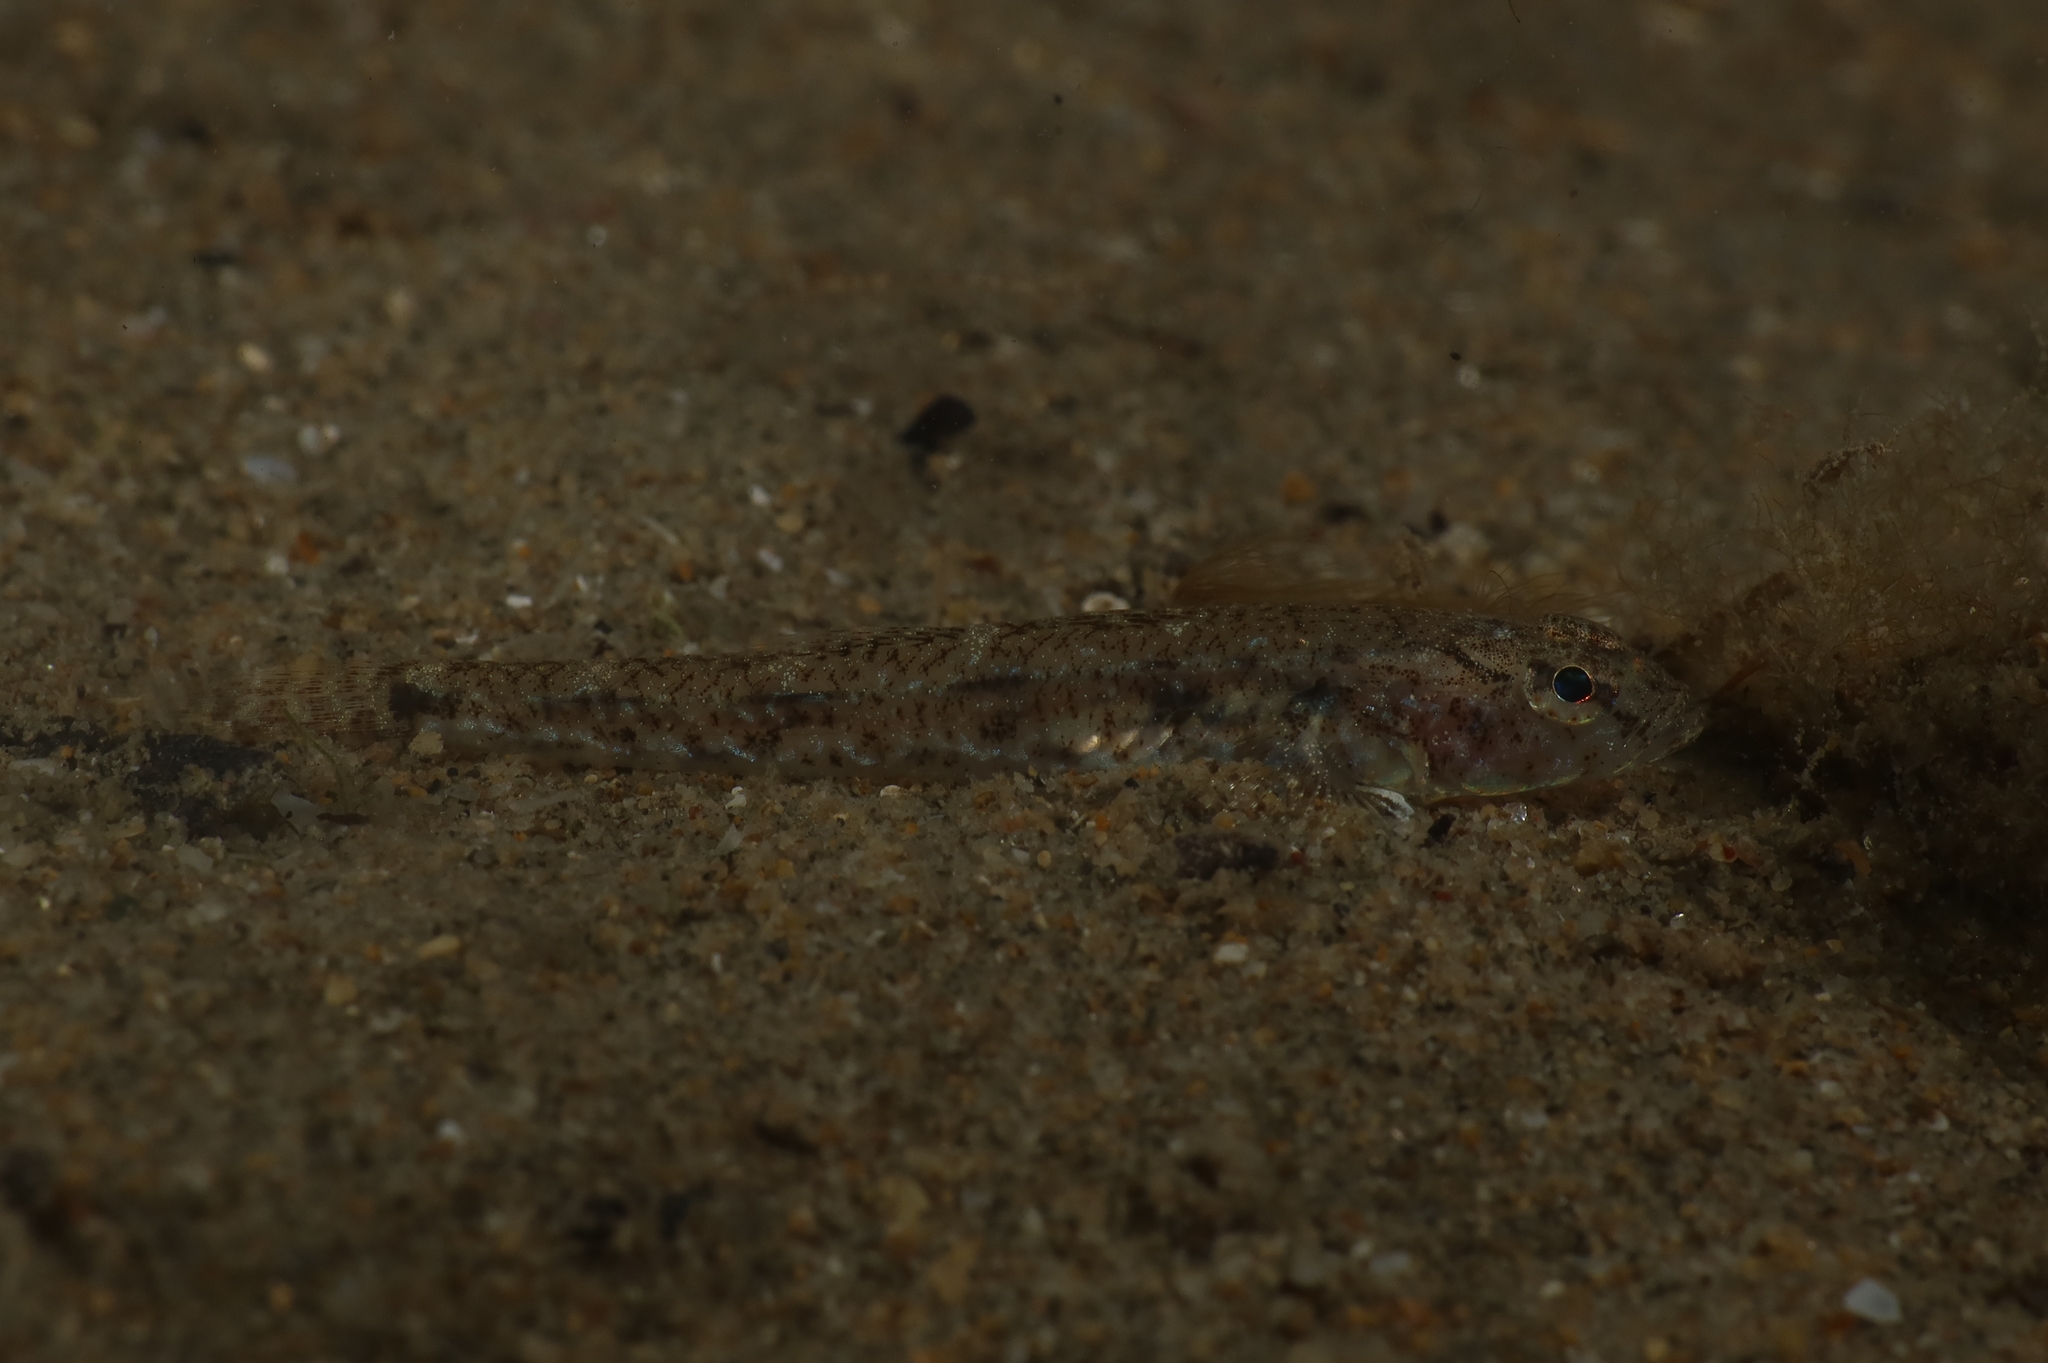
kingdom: Animalia
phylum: Chordata
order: Perciformes
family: Gobiidae
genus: Pomatoschistus
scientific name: Pomatoschistus marmoratus
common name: Marbled goby
